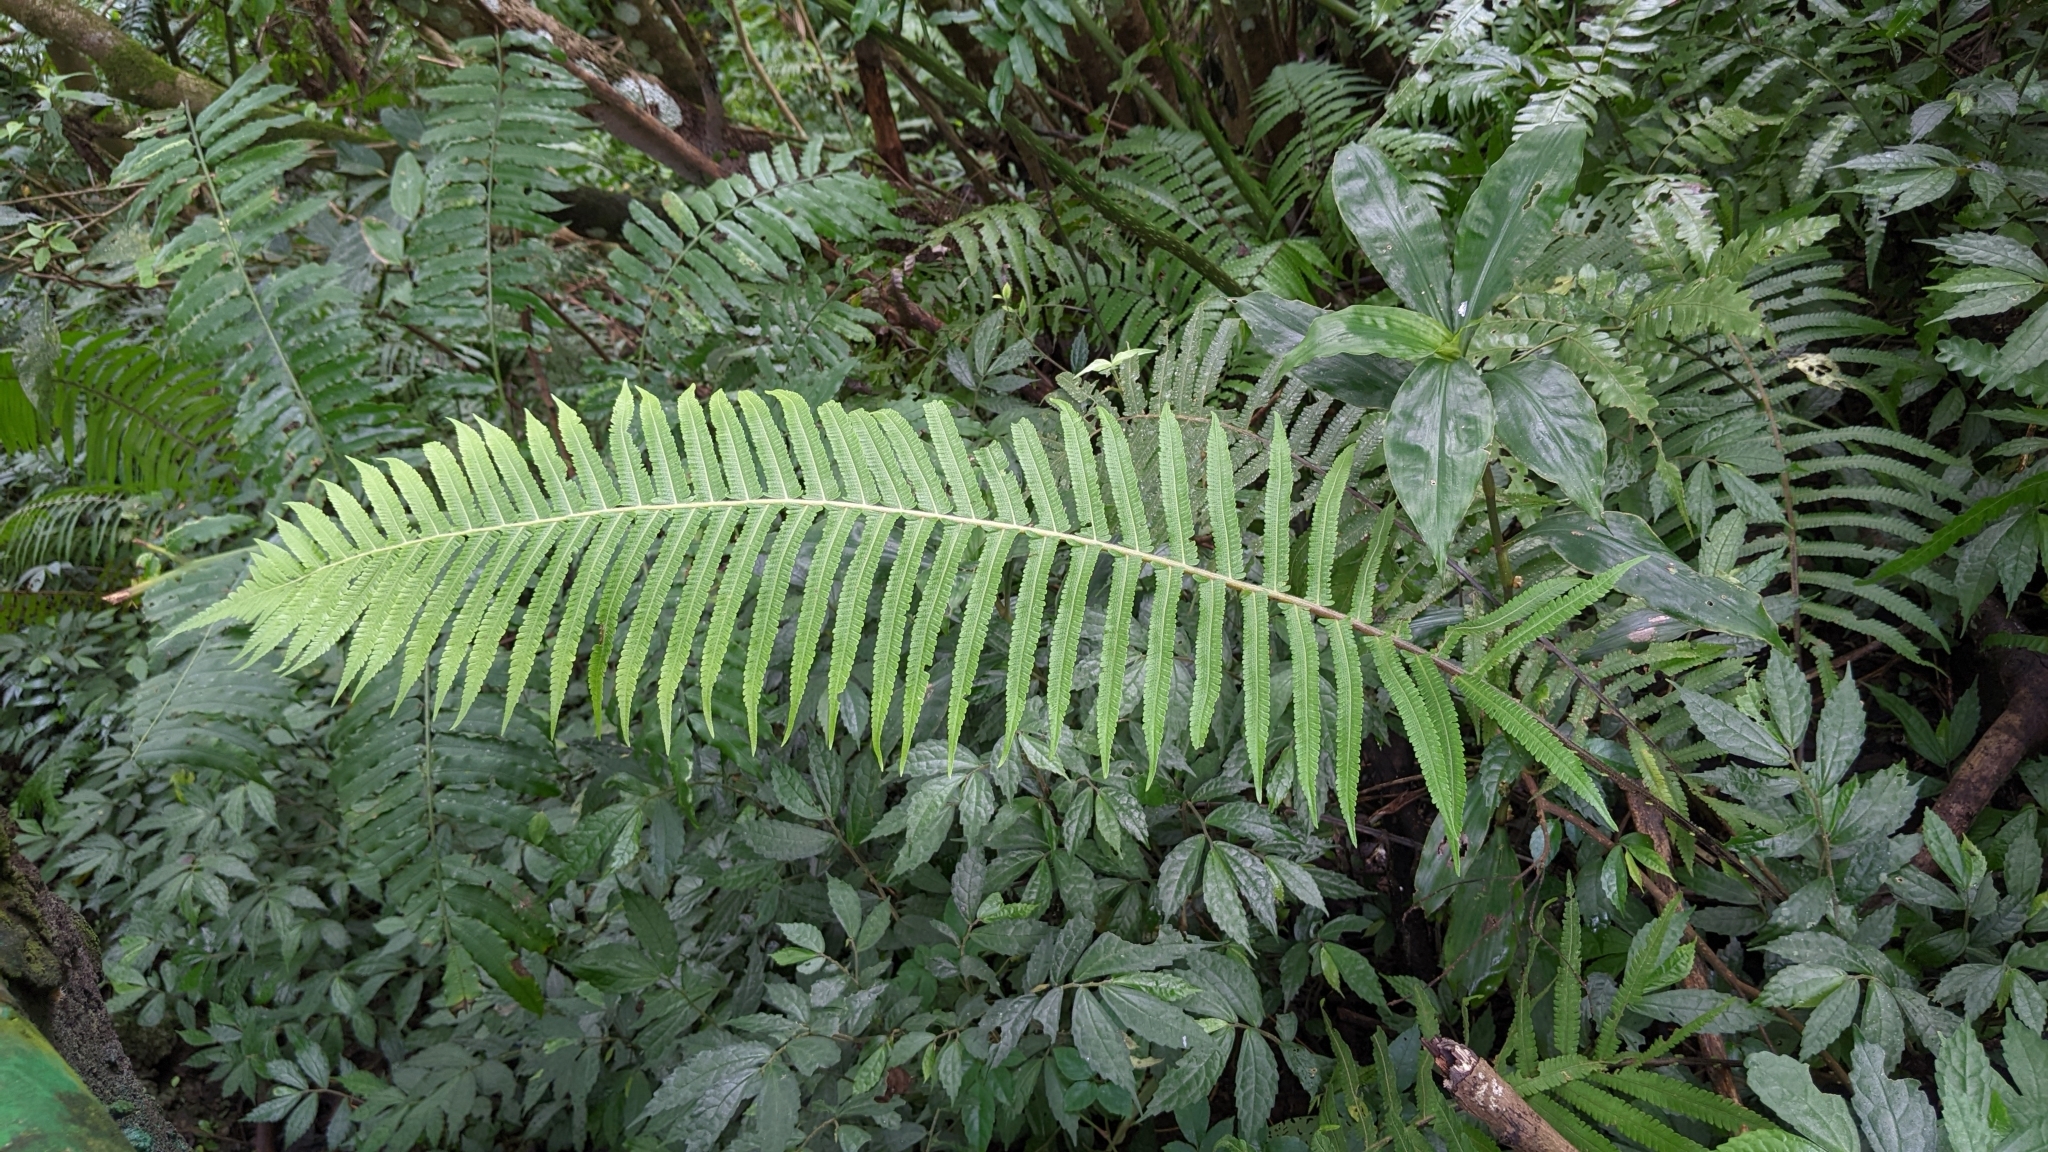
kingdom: Plantae
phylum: Tracheophyta
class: Polypodiopsida
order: Polypodiales
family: Thelypteridaceae
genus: Sphaerostephanos
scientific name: Sphaerostephanos taiwanensis
